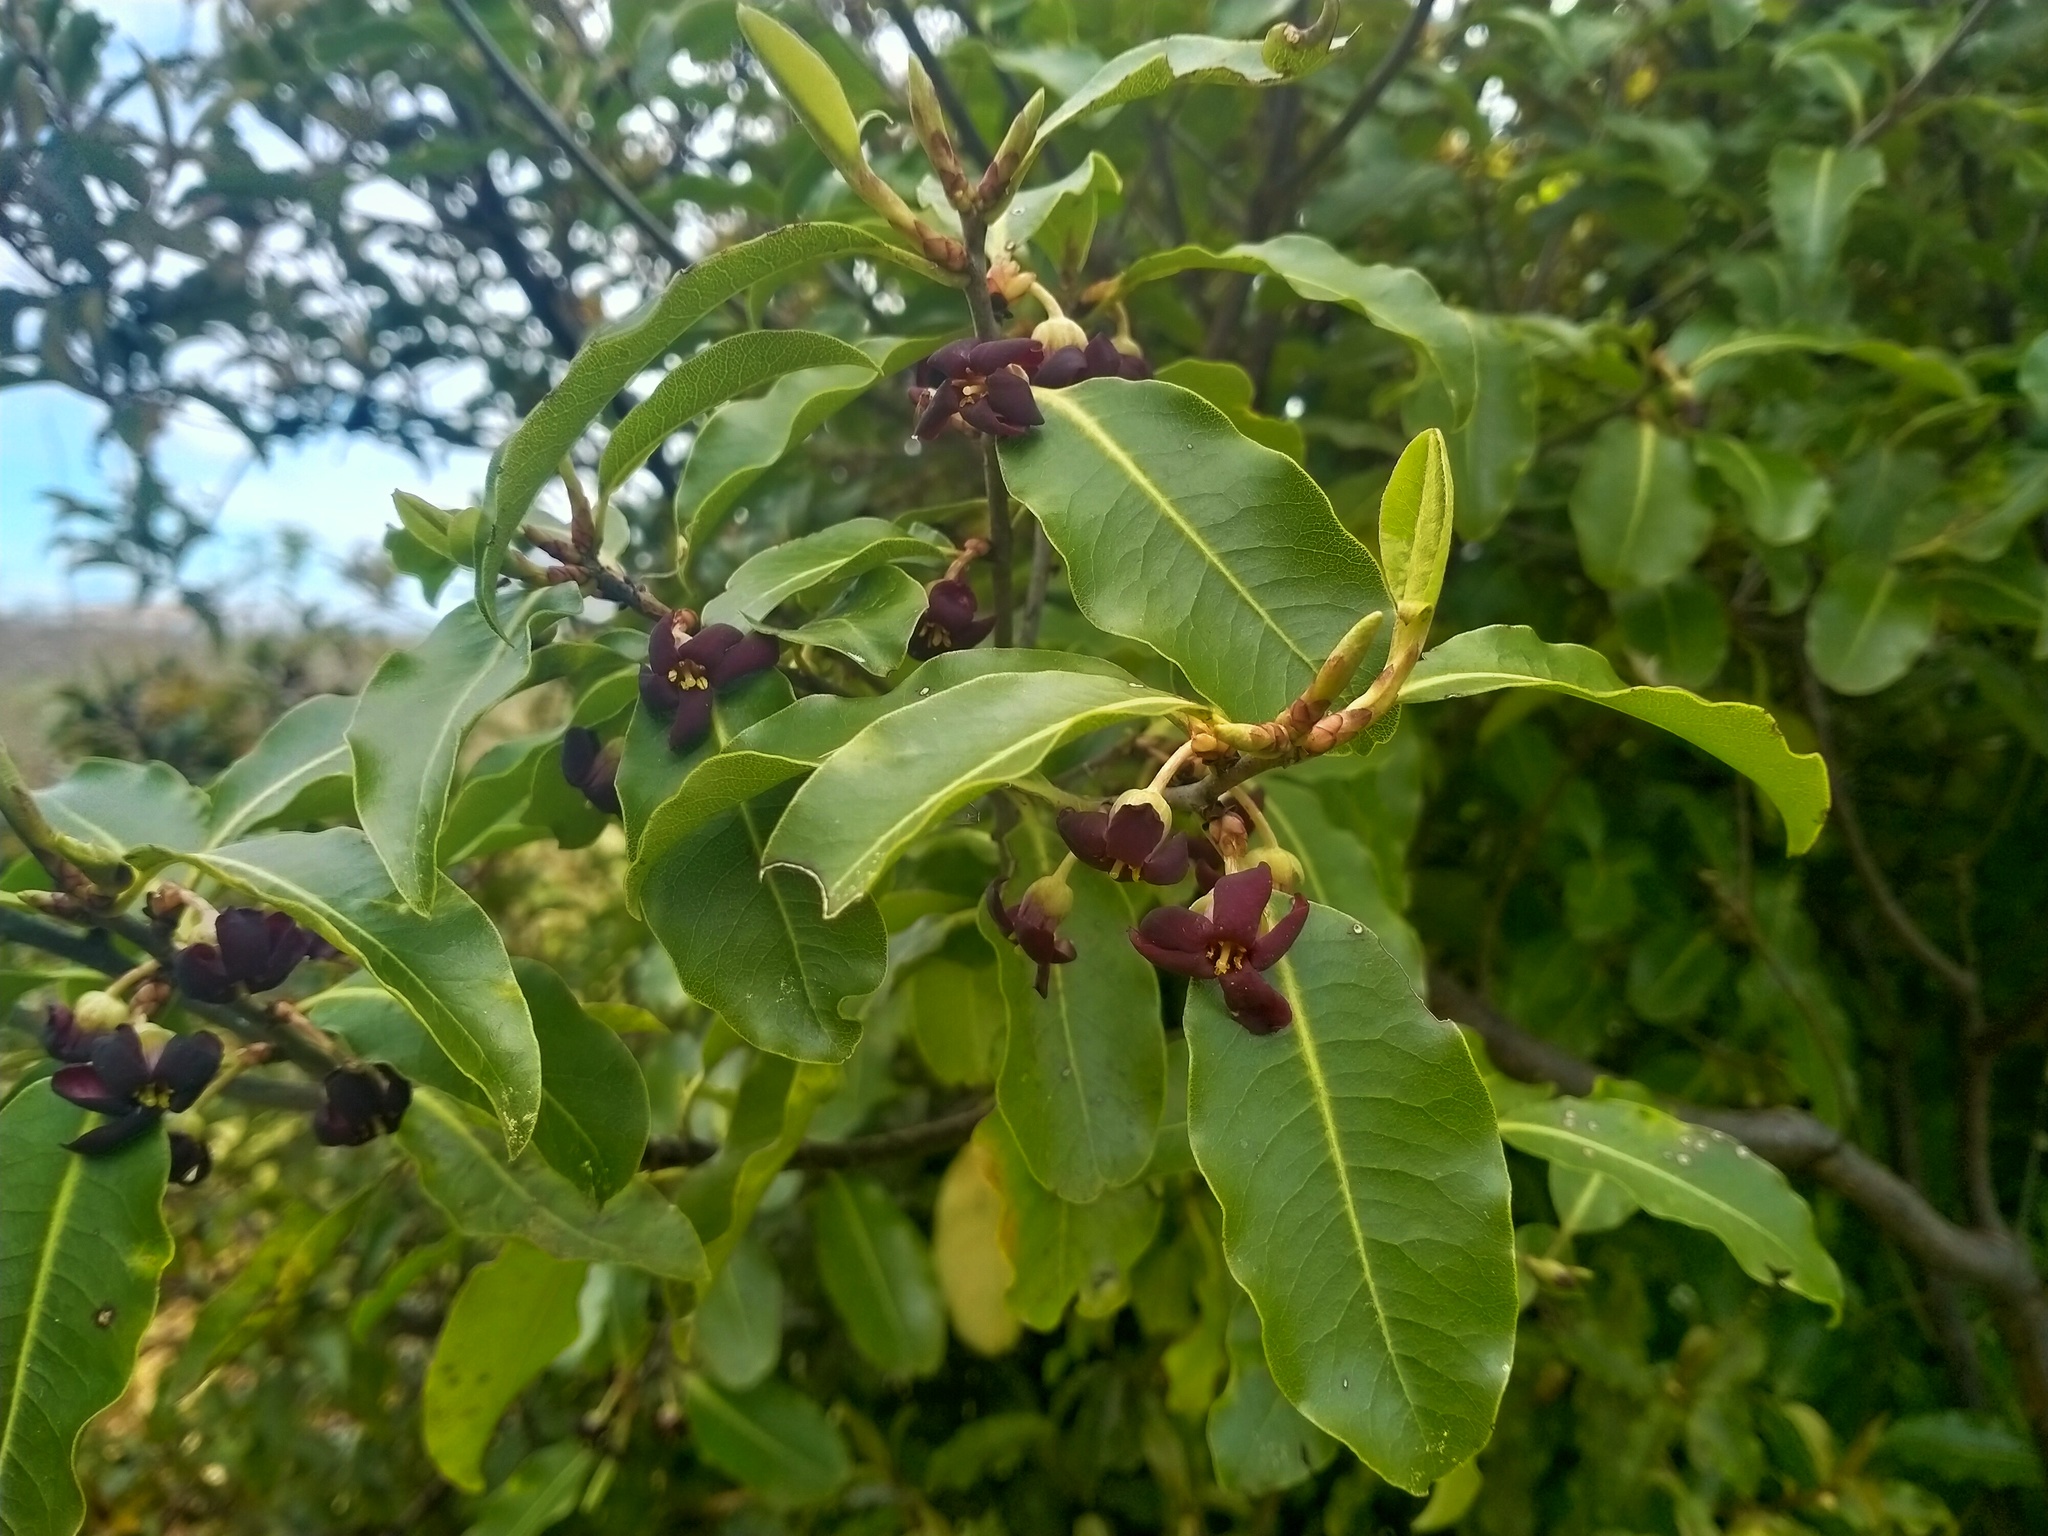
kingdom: Plantae
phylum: Tracheophyta
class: Magnoliopsida
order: Apiales
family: Pittosporaceae
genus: Pittosporum
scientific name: Pittosporum tenuifolium
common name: Kohuhu
